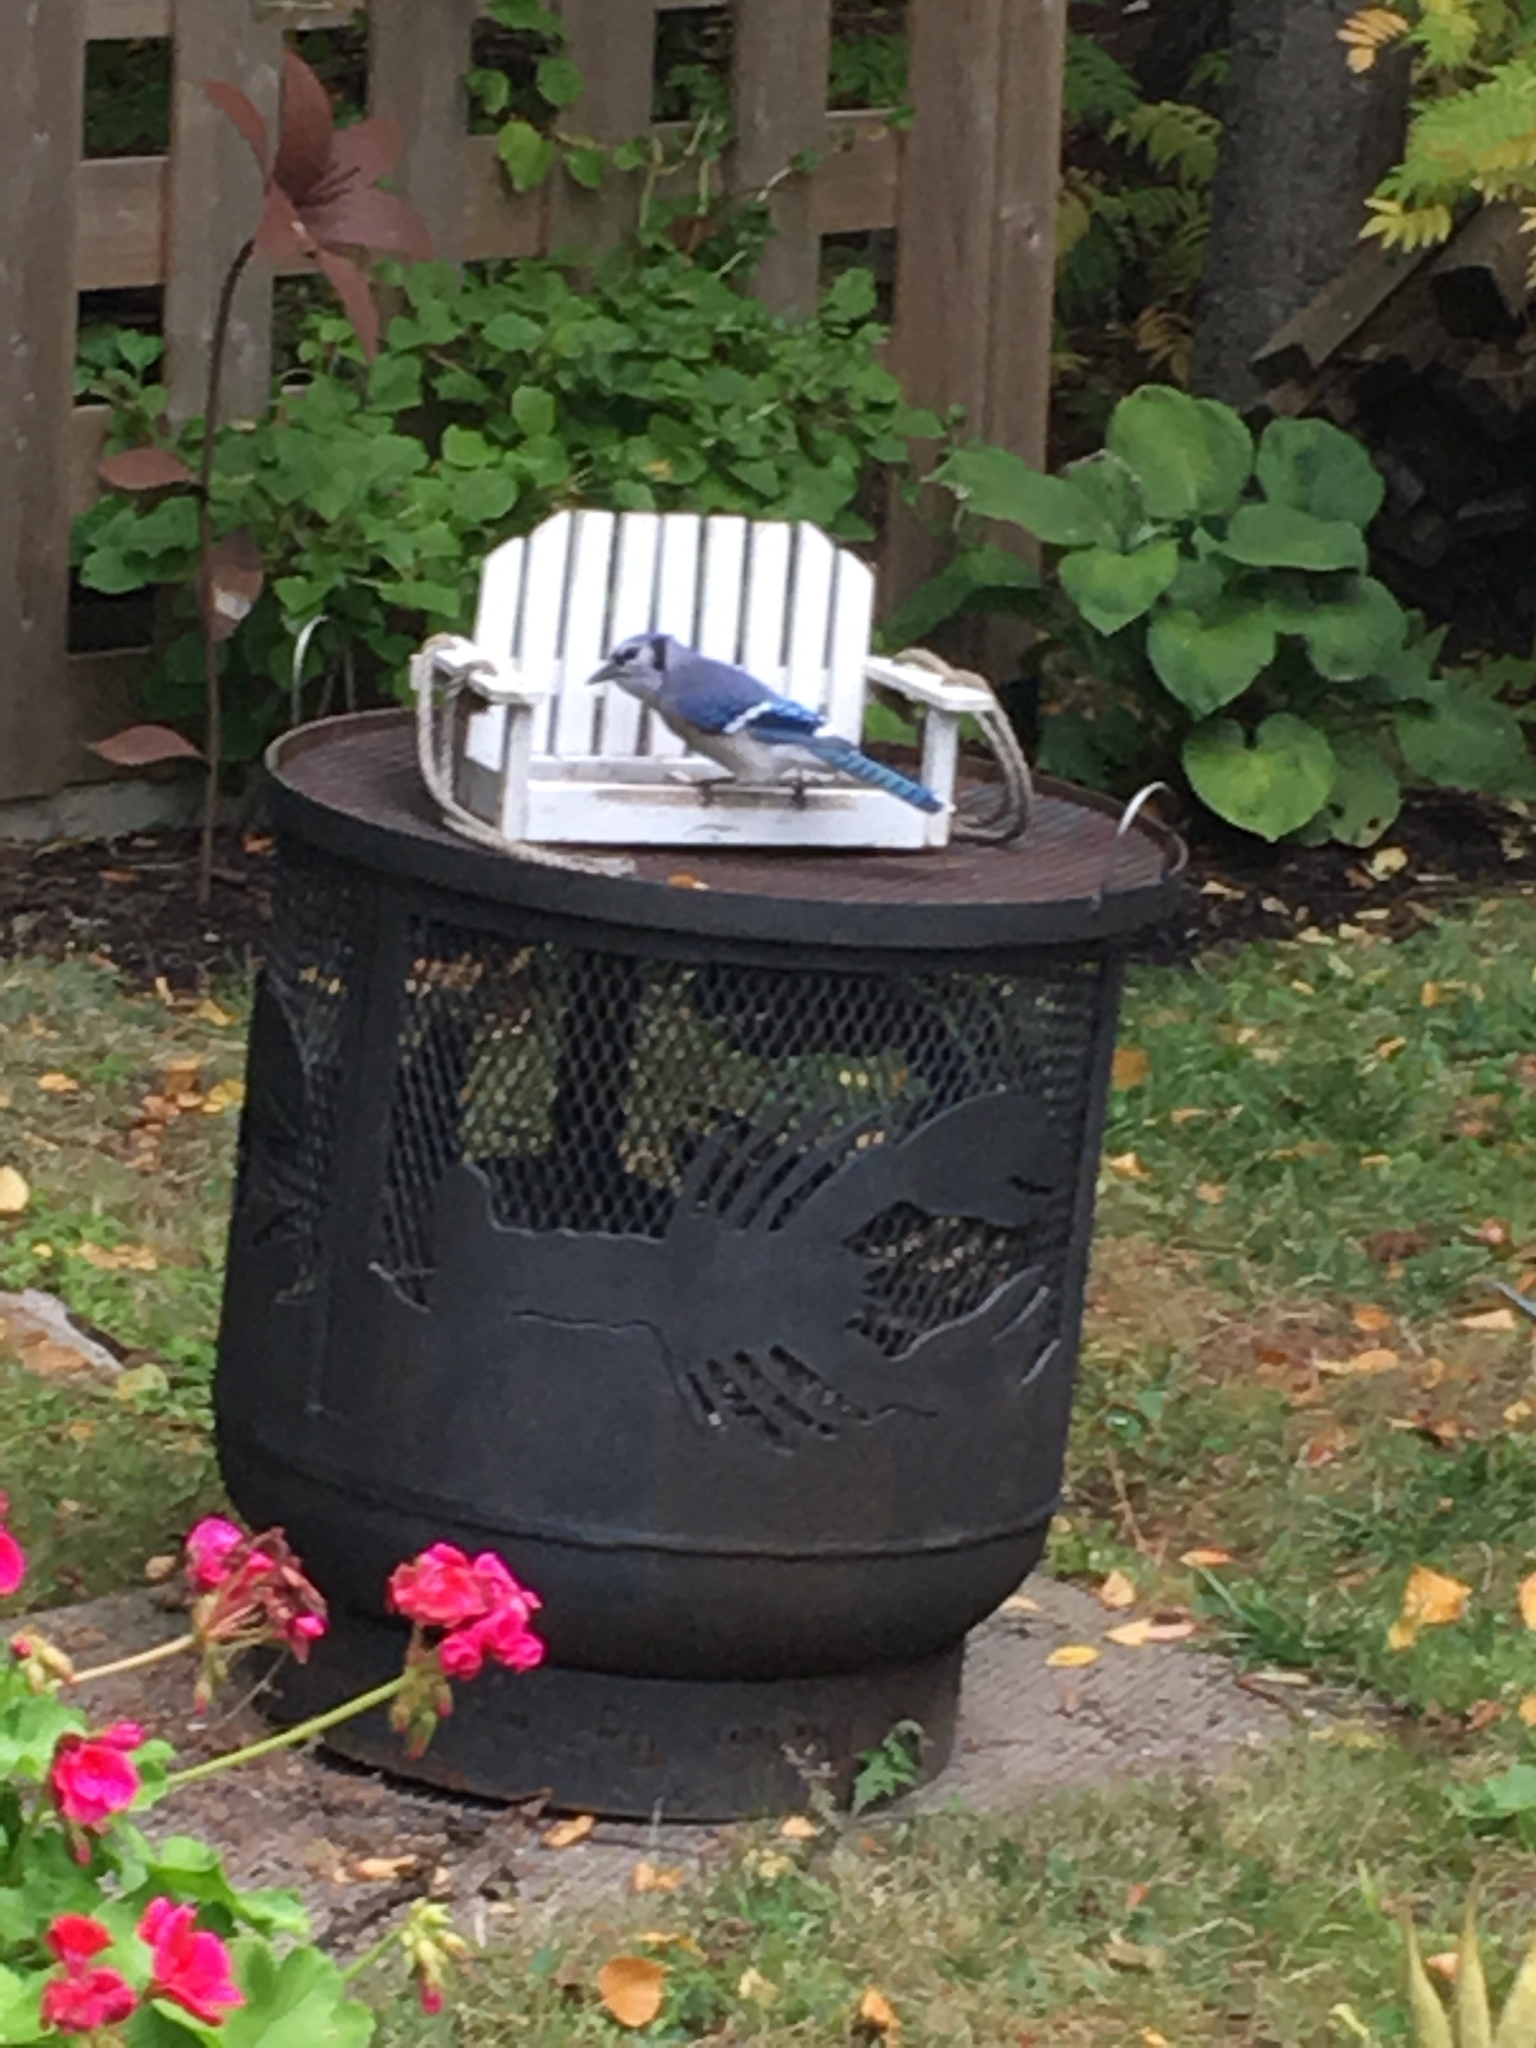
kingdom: Animalia
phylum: Chordata
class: Aves
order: Passeriformes
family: Corvidae
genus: Cyanocitta
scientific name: Cyanocitta cristata
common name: Blue jay
